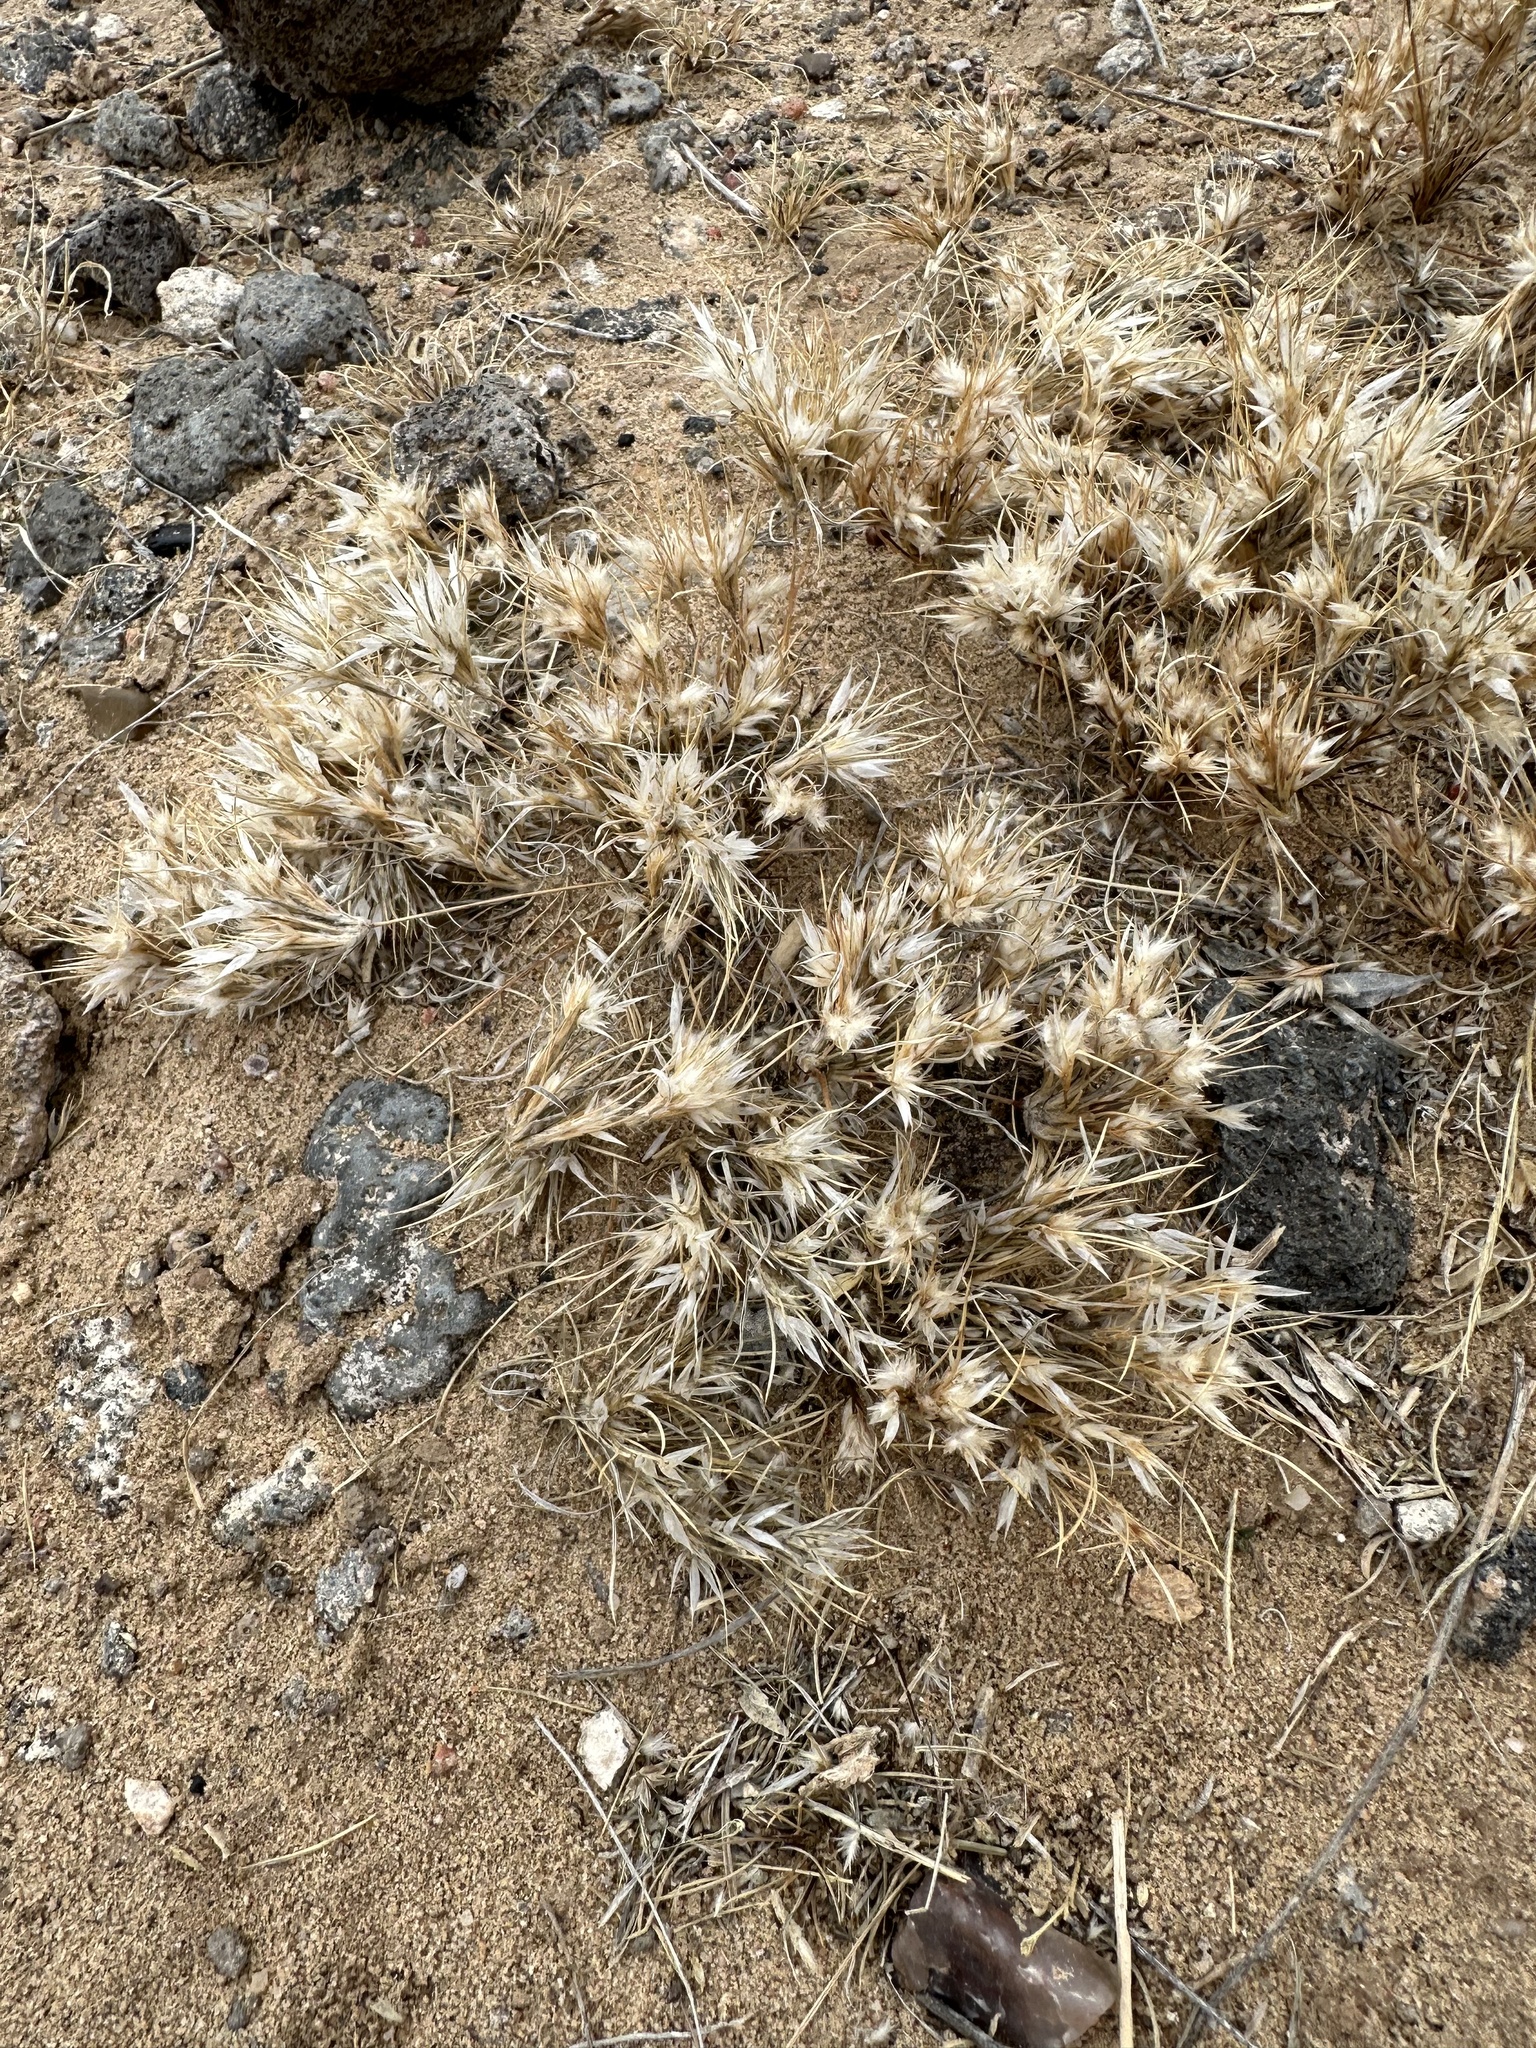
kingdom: Plantae
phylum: Tracheophyta
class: Liliopsida
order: Poales
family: Poaceae
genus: Dasyochloa
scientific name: Dasyochloa pulchella
